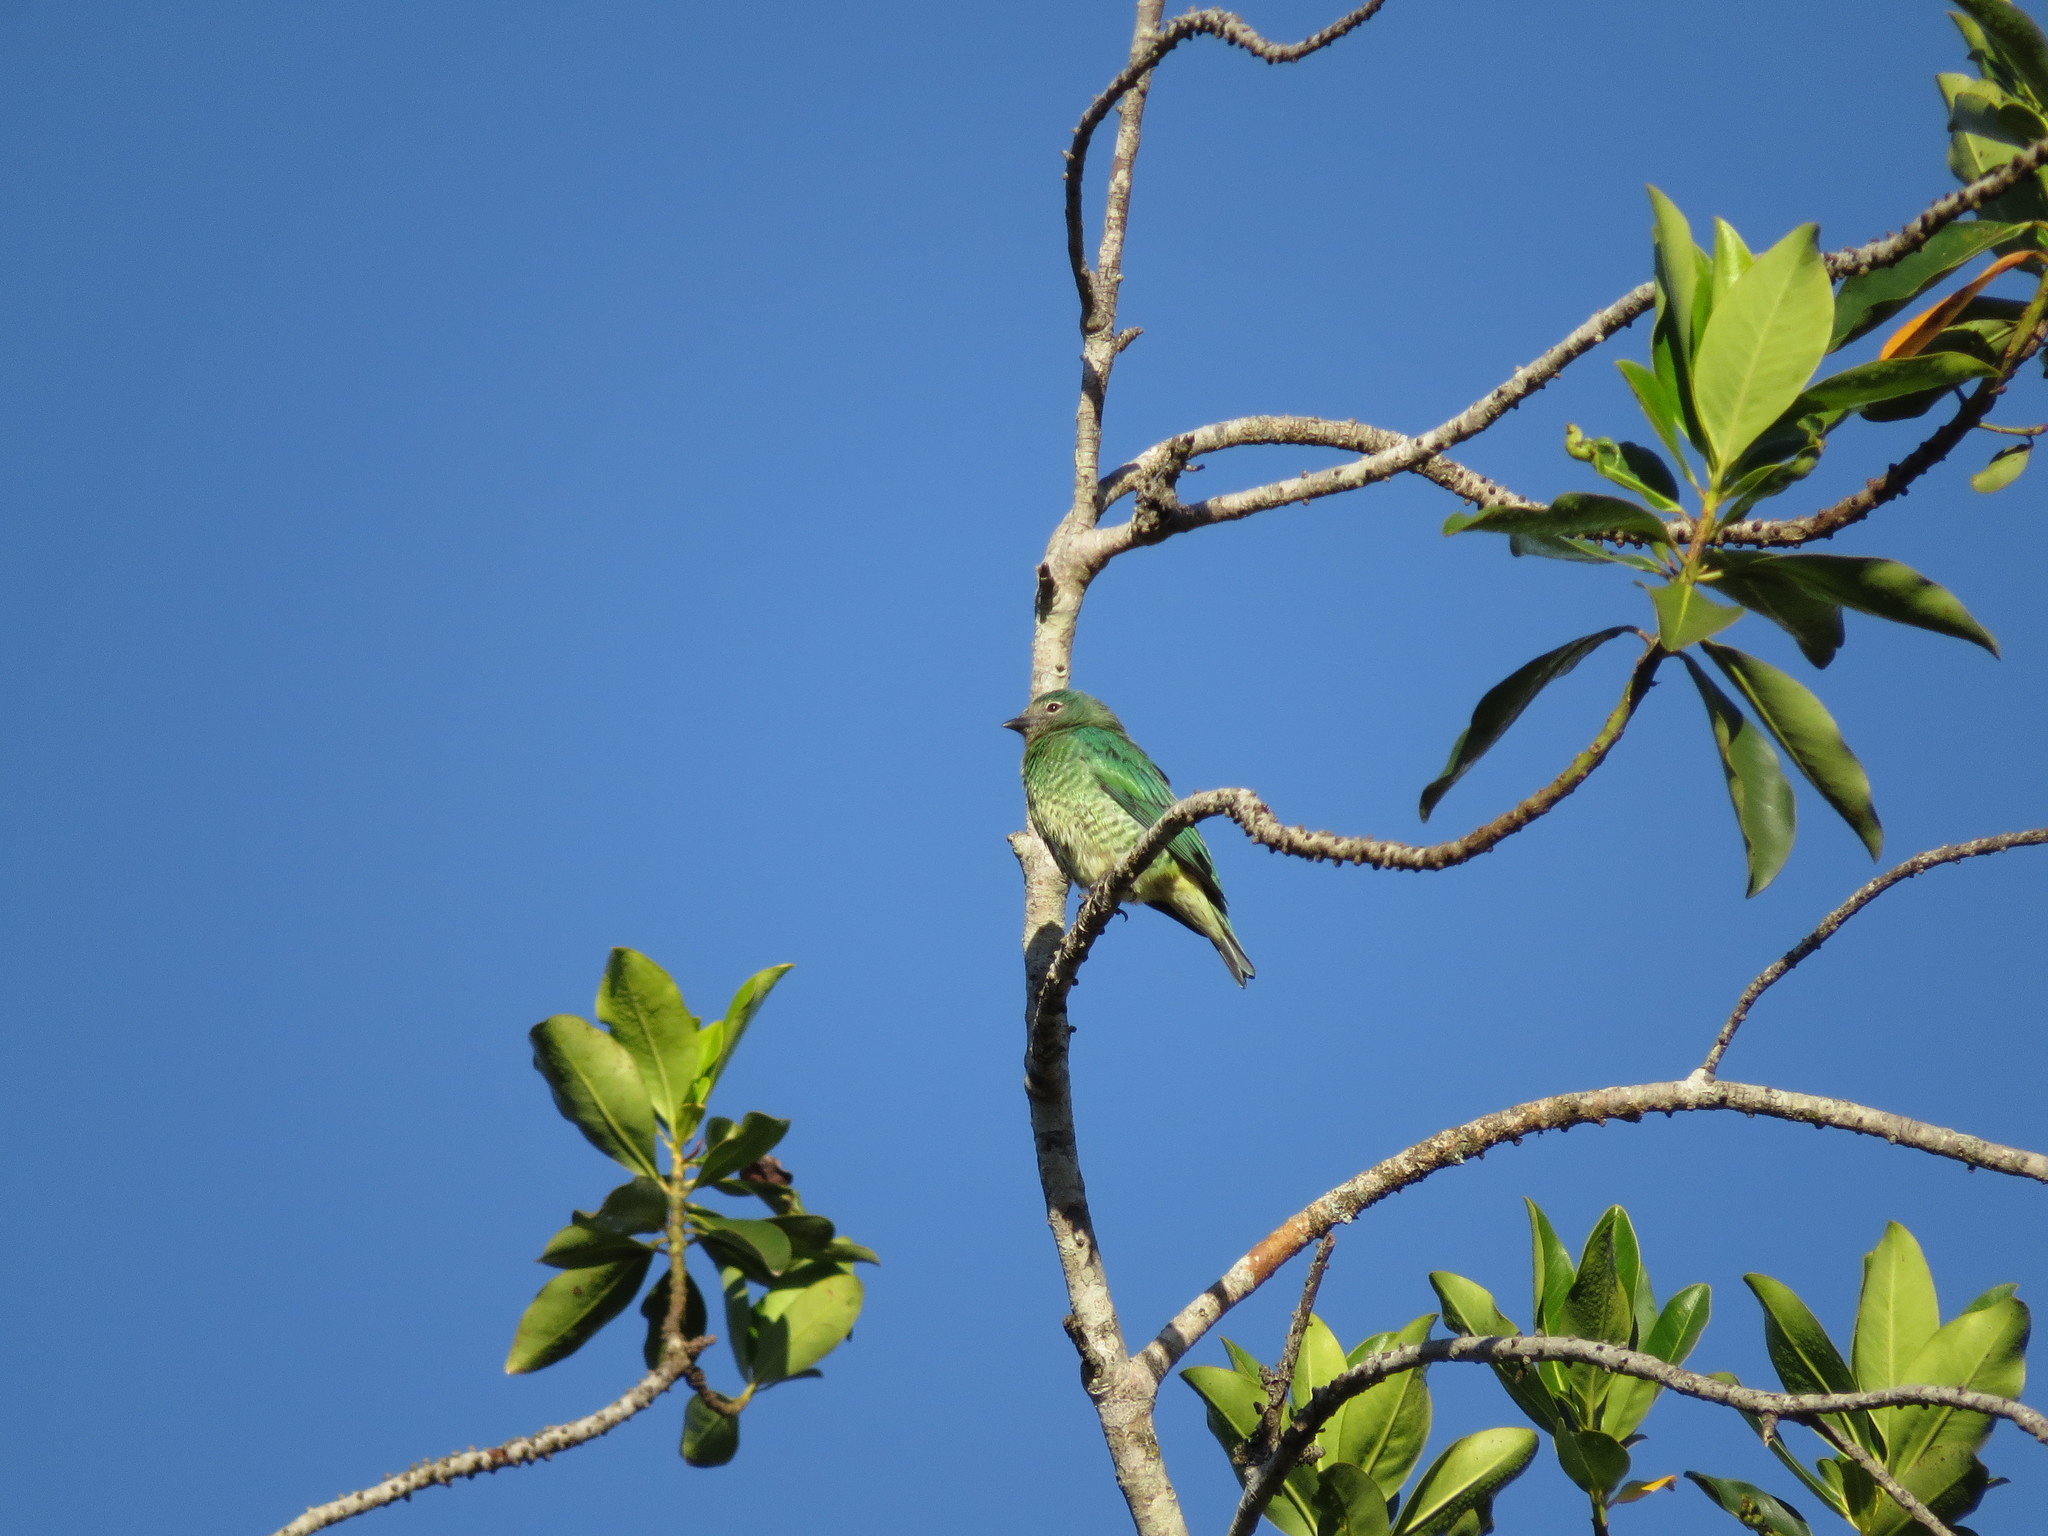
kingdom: Animalia
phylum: Chordata
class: Aves
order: Passeriformes
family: Thraupidae
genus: Tersina
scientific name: Tersina viridis
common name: Swallow tanager
